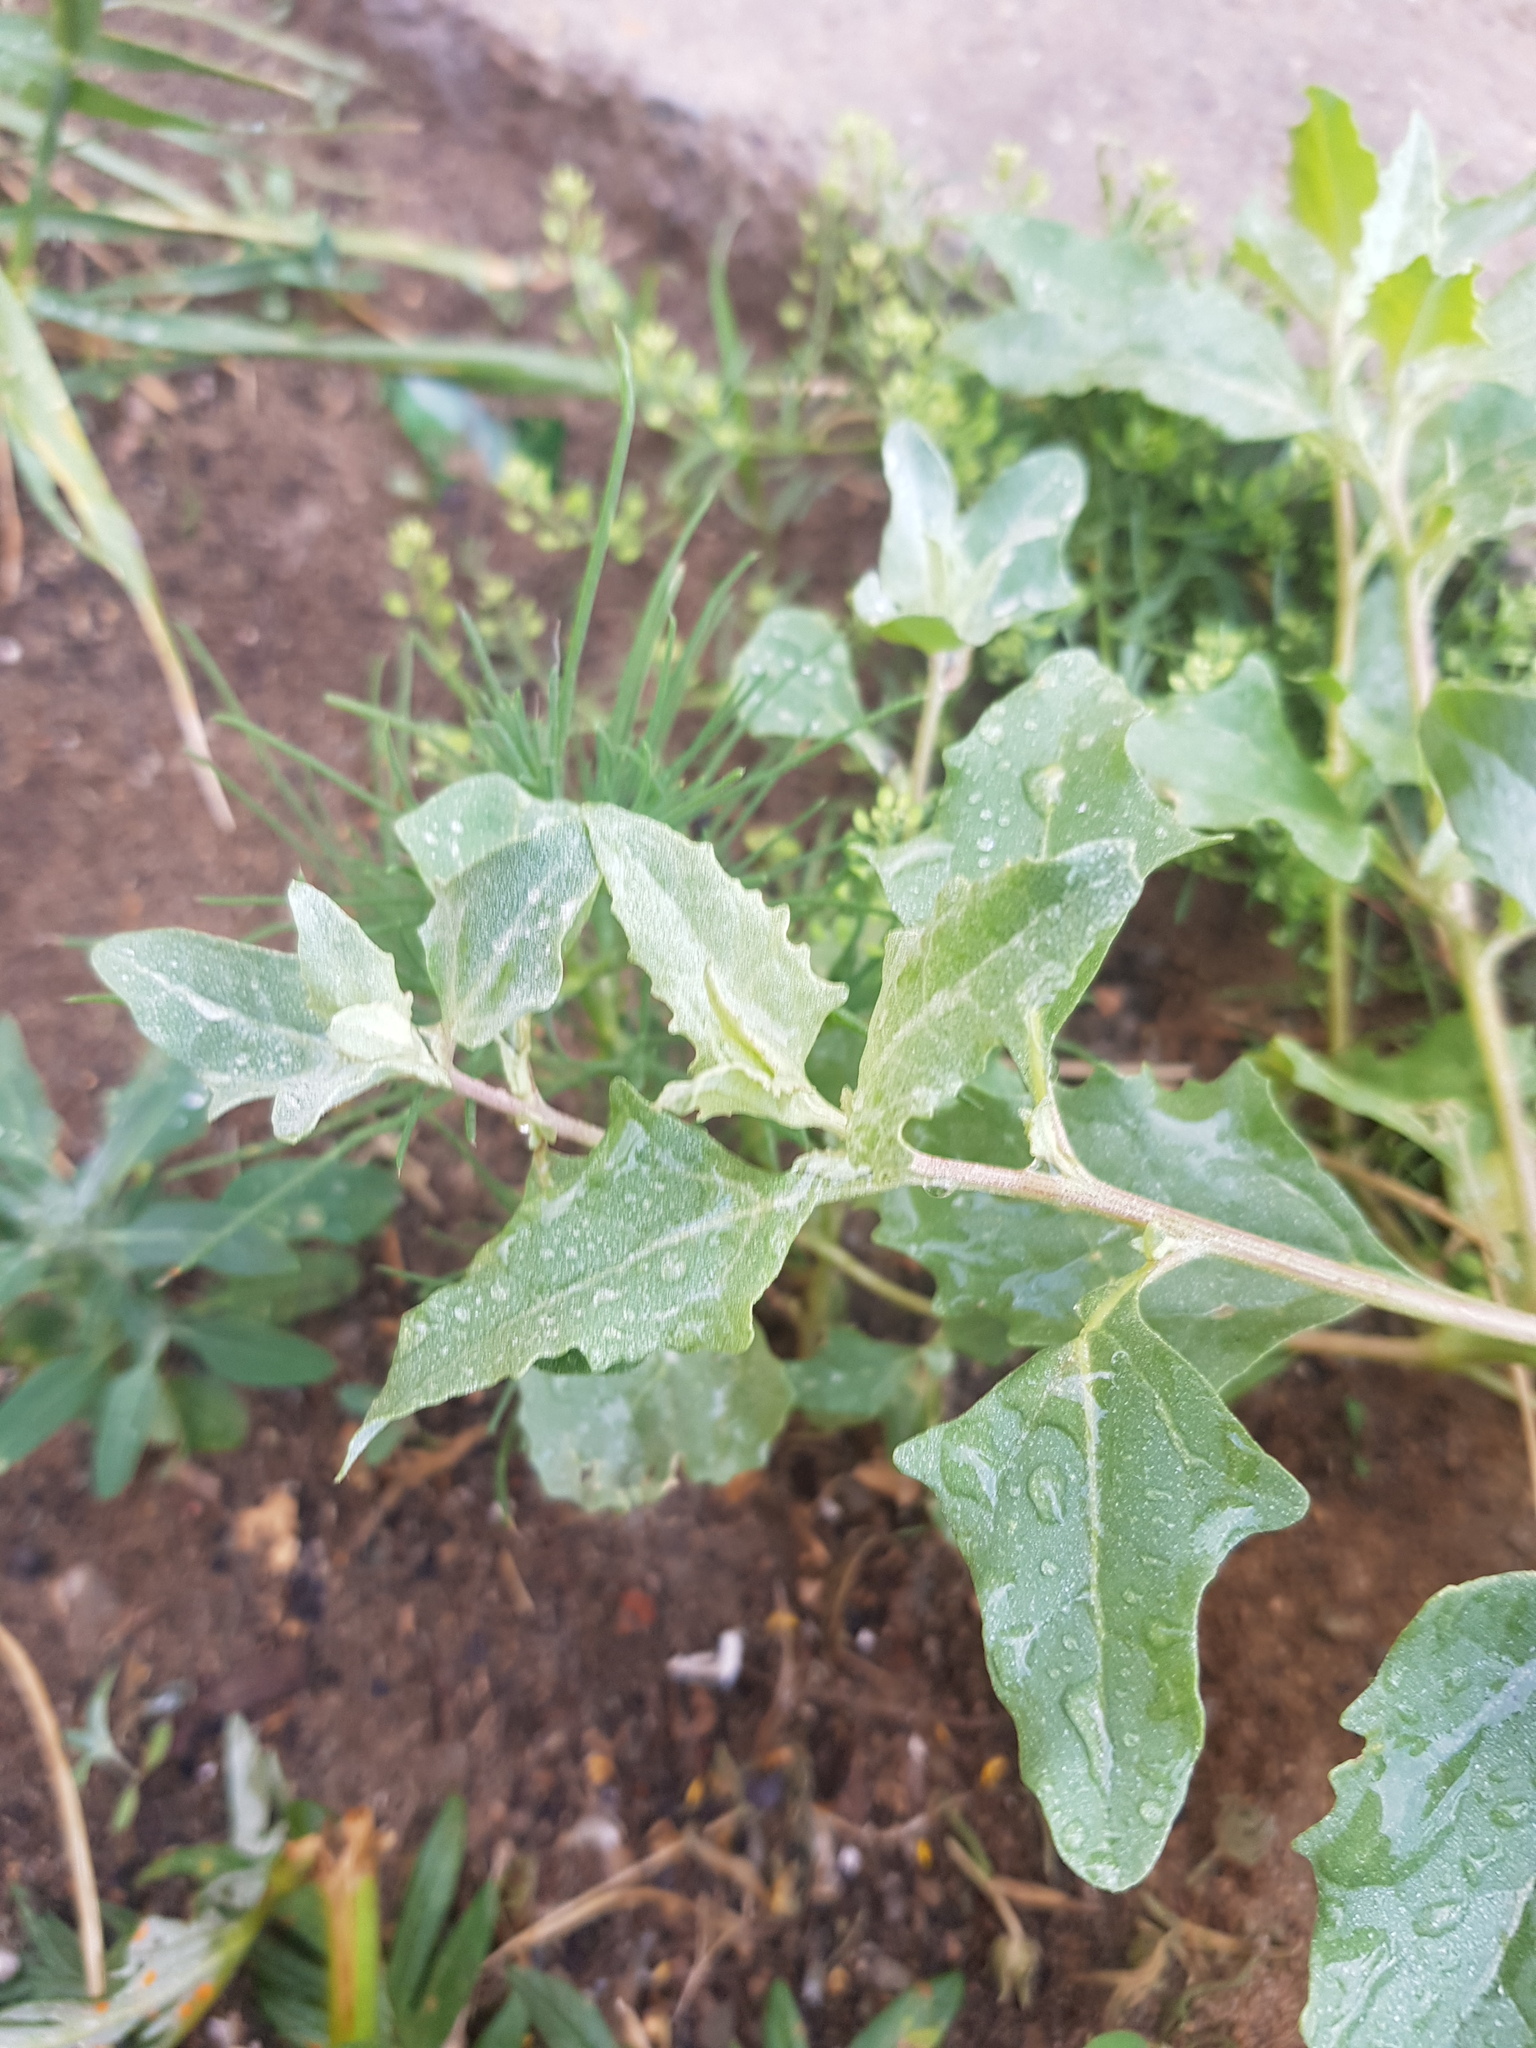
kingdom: Plantae
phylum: Tracheophyta
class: Magnoliopsida
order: Caryophyllales
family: Amaranthaceae
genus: Atriplex
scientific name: Atriplex sibirica
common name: Siberian saltbush
